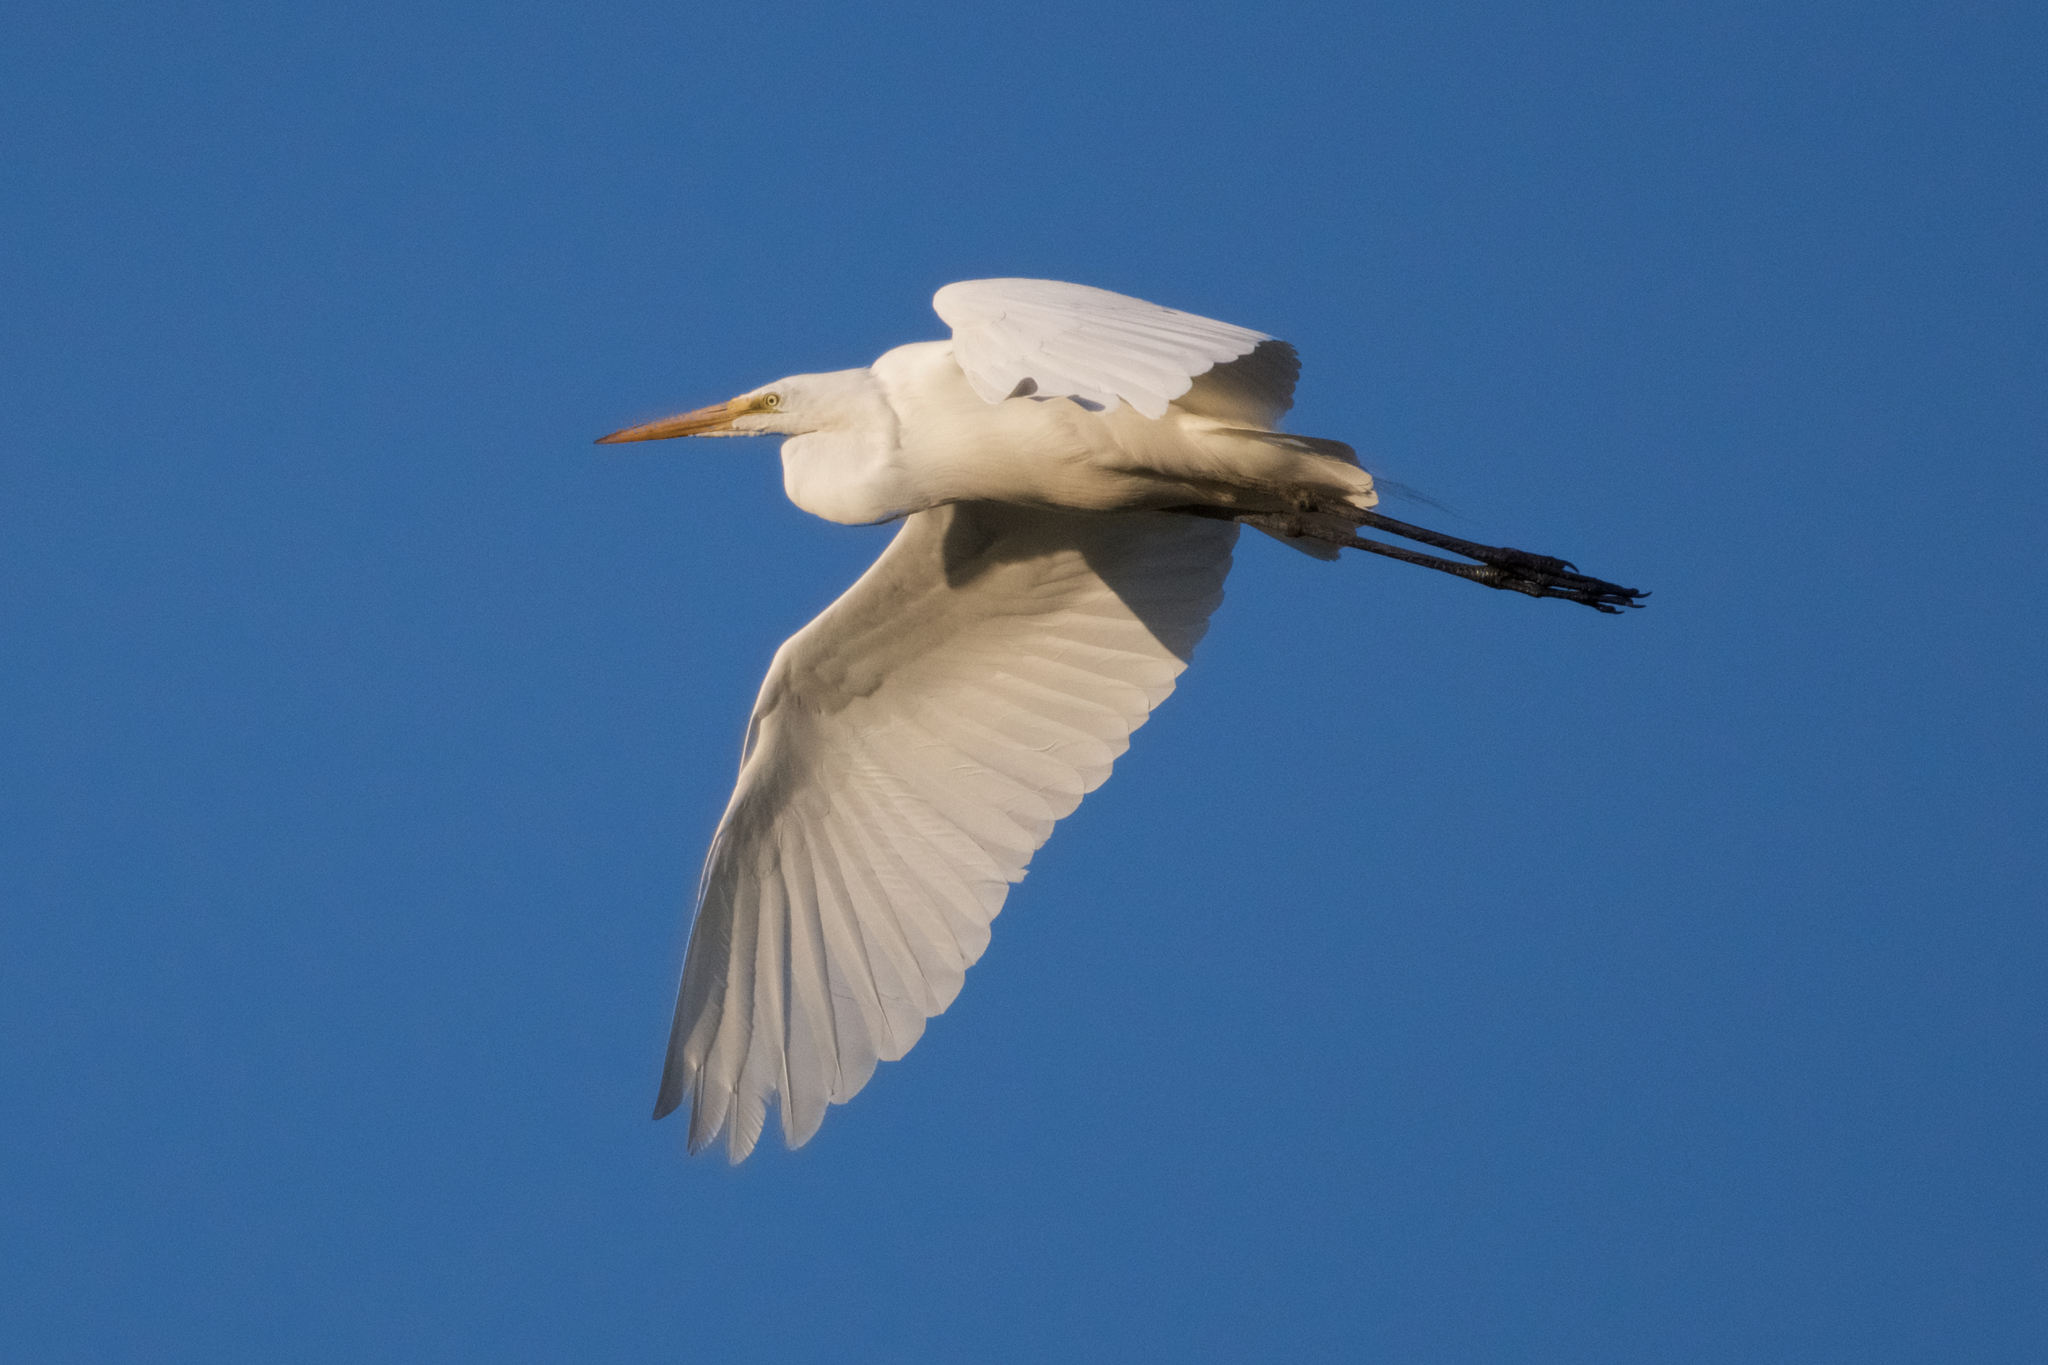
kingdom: Animalia
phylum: Chordata
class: Aves
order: Pelecaniformes
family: Ardeidae
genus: Ardea
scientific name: Ardea alba
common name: Great egret
